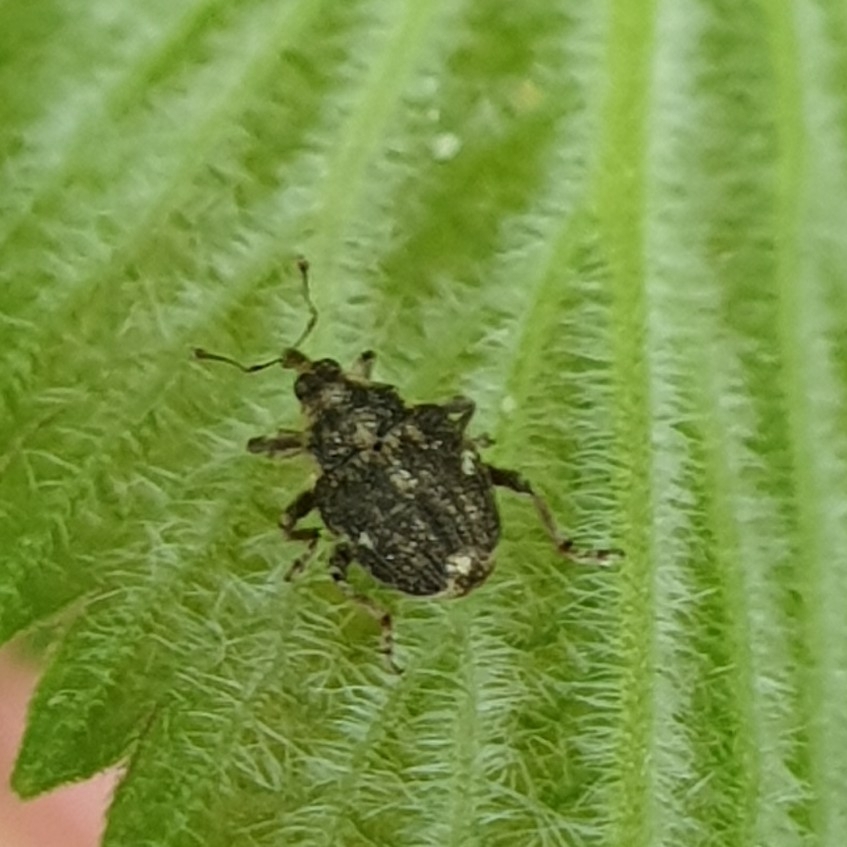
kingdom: Animalia
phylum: Arthropoda
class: Insecta
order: Coleoptera
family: Curculionidae
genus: Nedyus
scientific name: Nedyus quadrimaculatus
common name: Small nettle weevil
